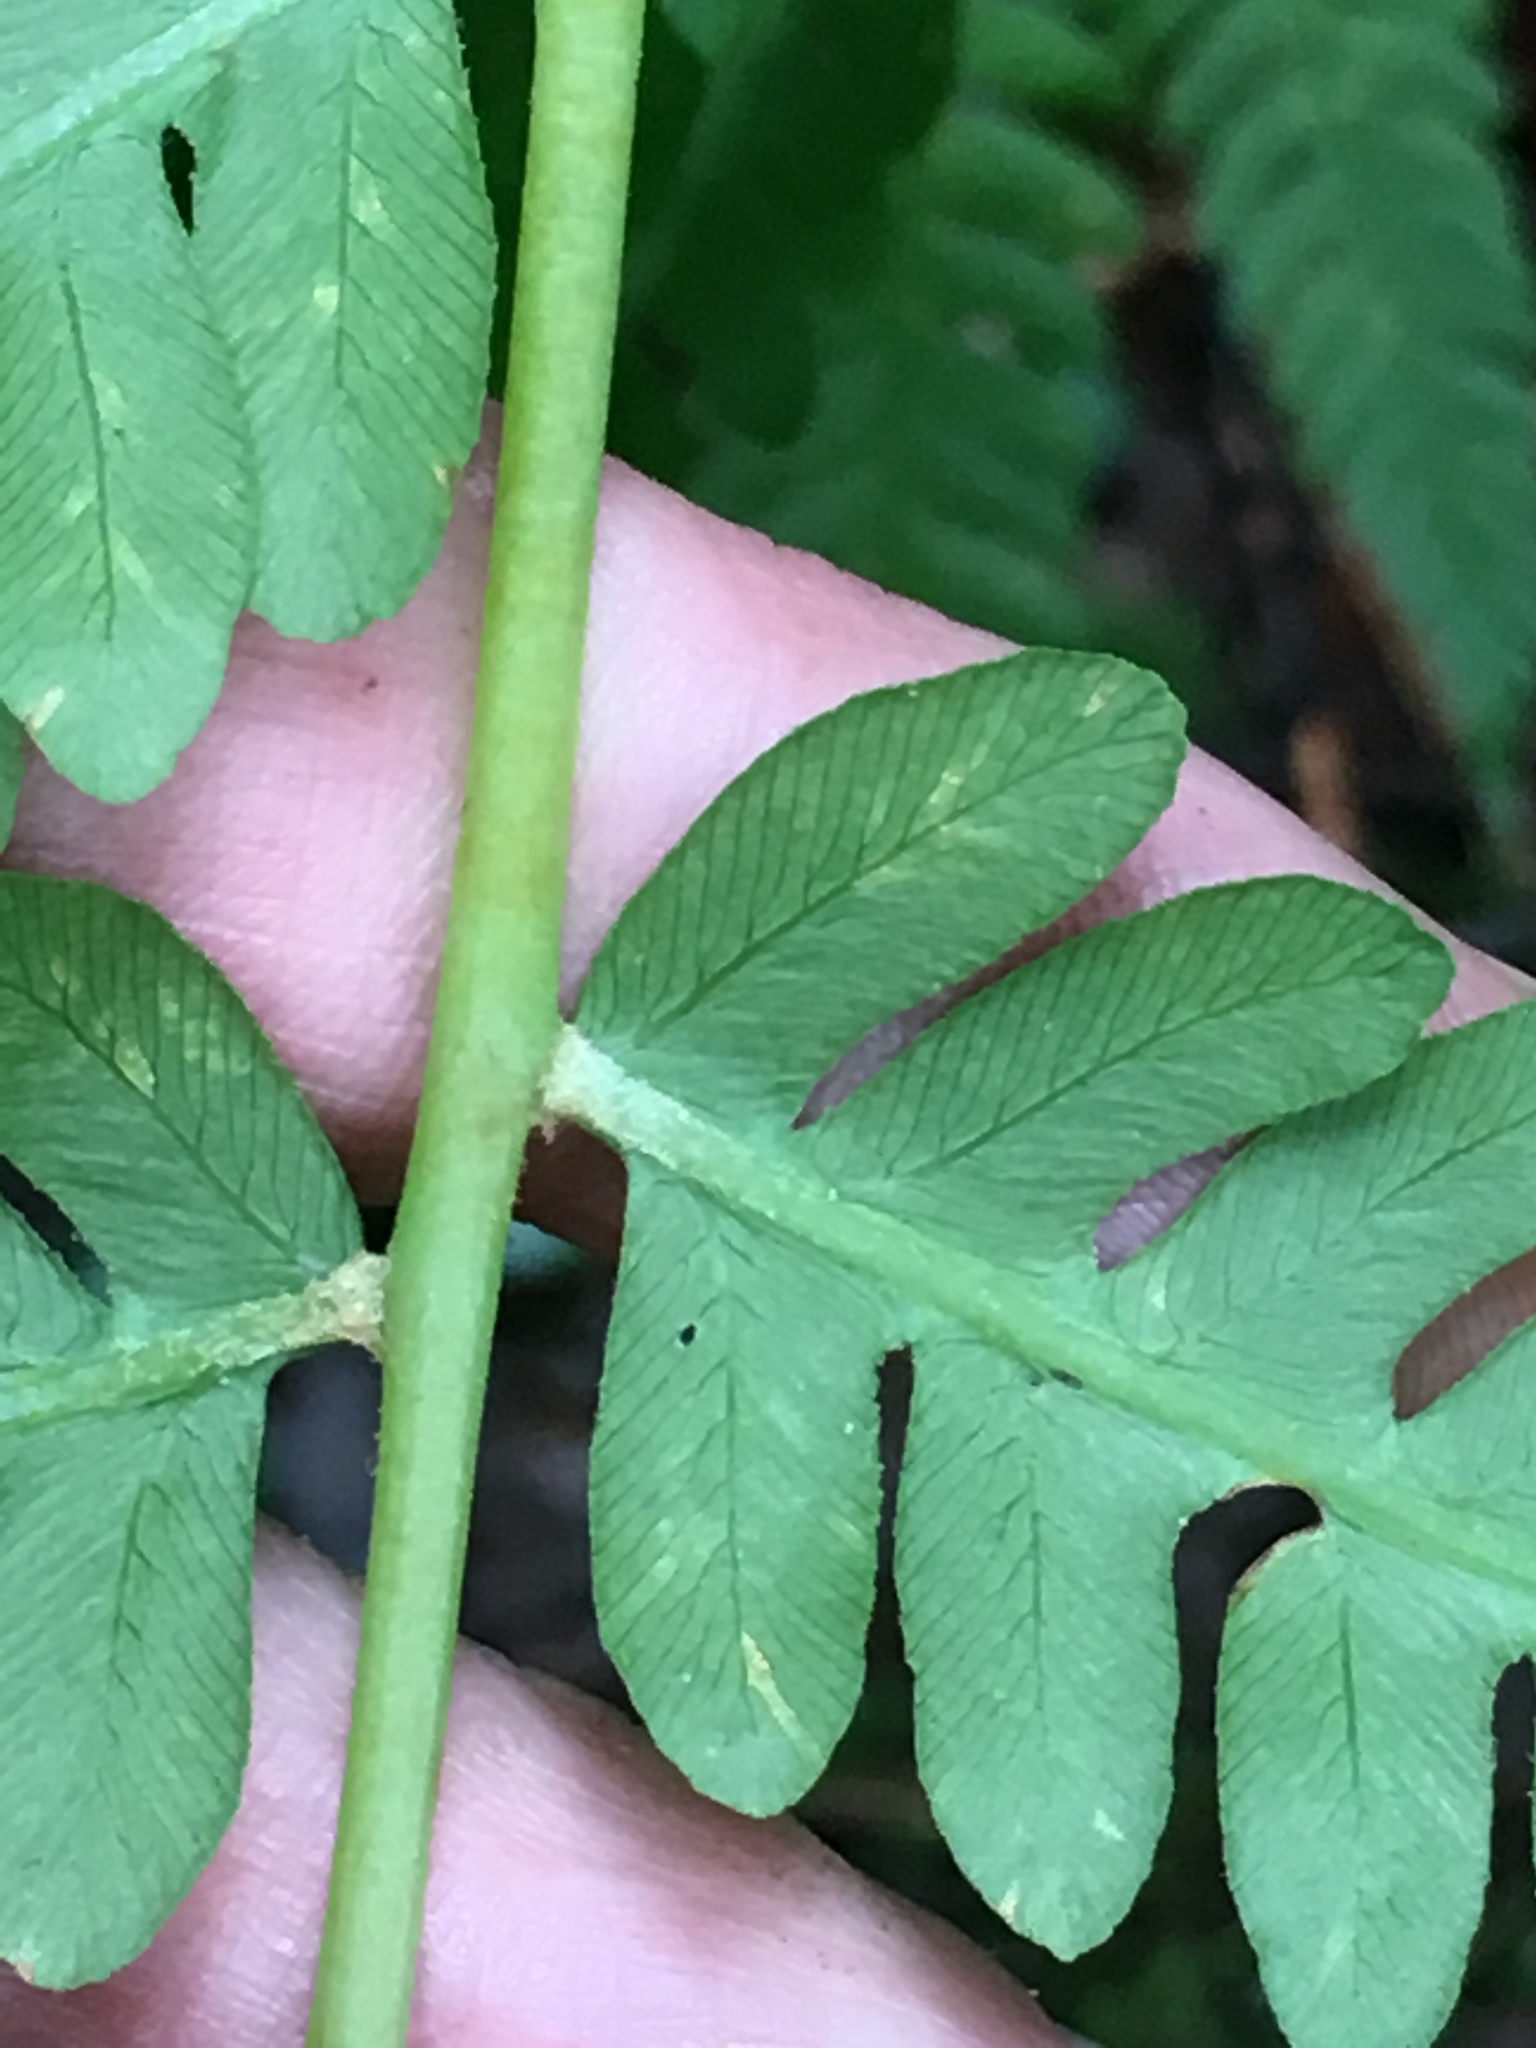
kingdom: Plantae
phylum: Tracheophyta
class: Polypodiopsida
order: Osmundales
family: Osmundaceae
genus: Osmundastrum
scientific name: Osmundastrum cinnamomeum
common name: Cinnamon fern
